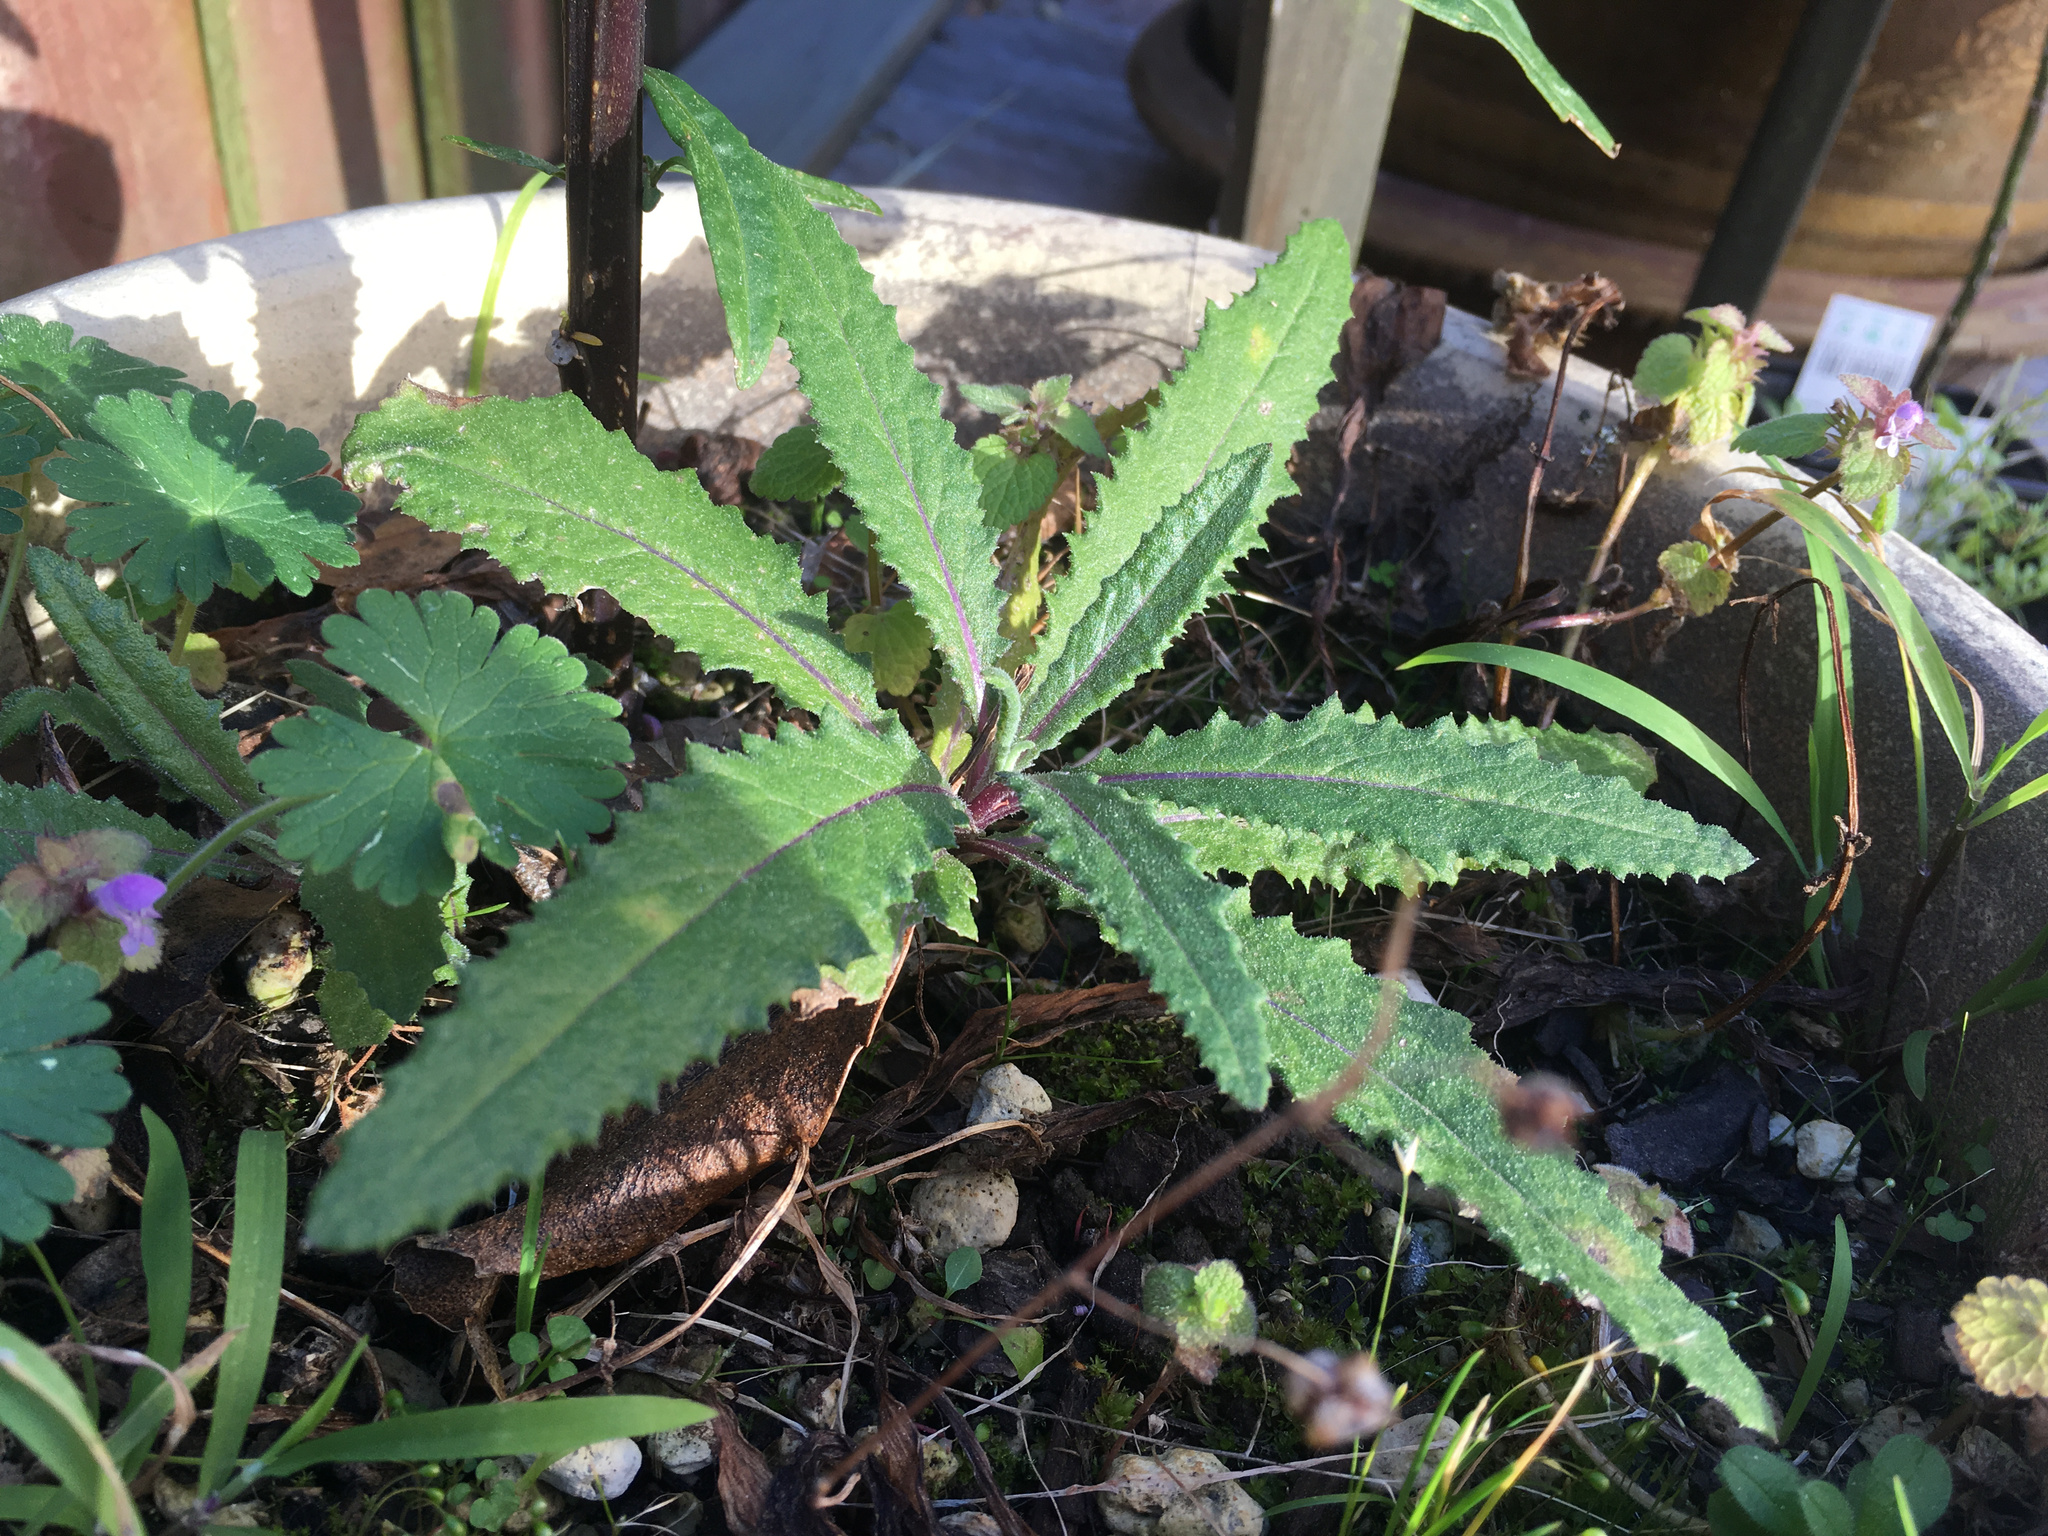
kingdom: Plantae
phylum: Tracheophyta
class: Magnoliopsida
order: Asterales
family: Asteraceae
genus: Senecio
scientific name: Senecio minimus
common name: Toothed fireweed
